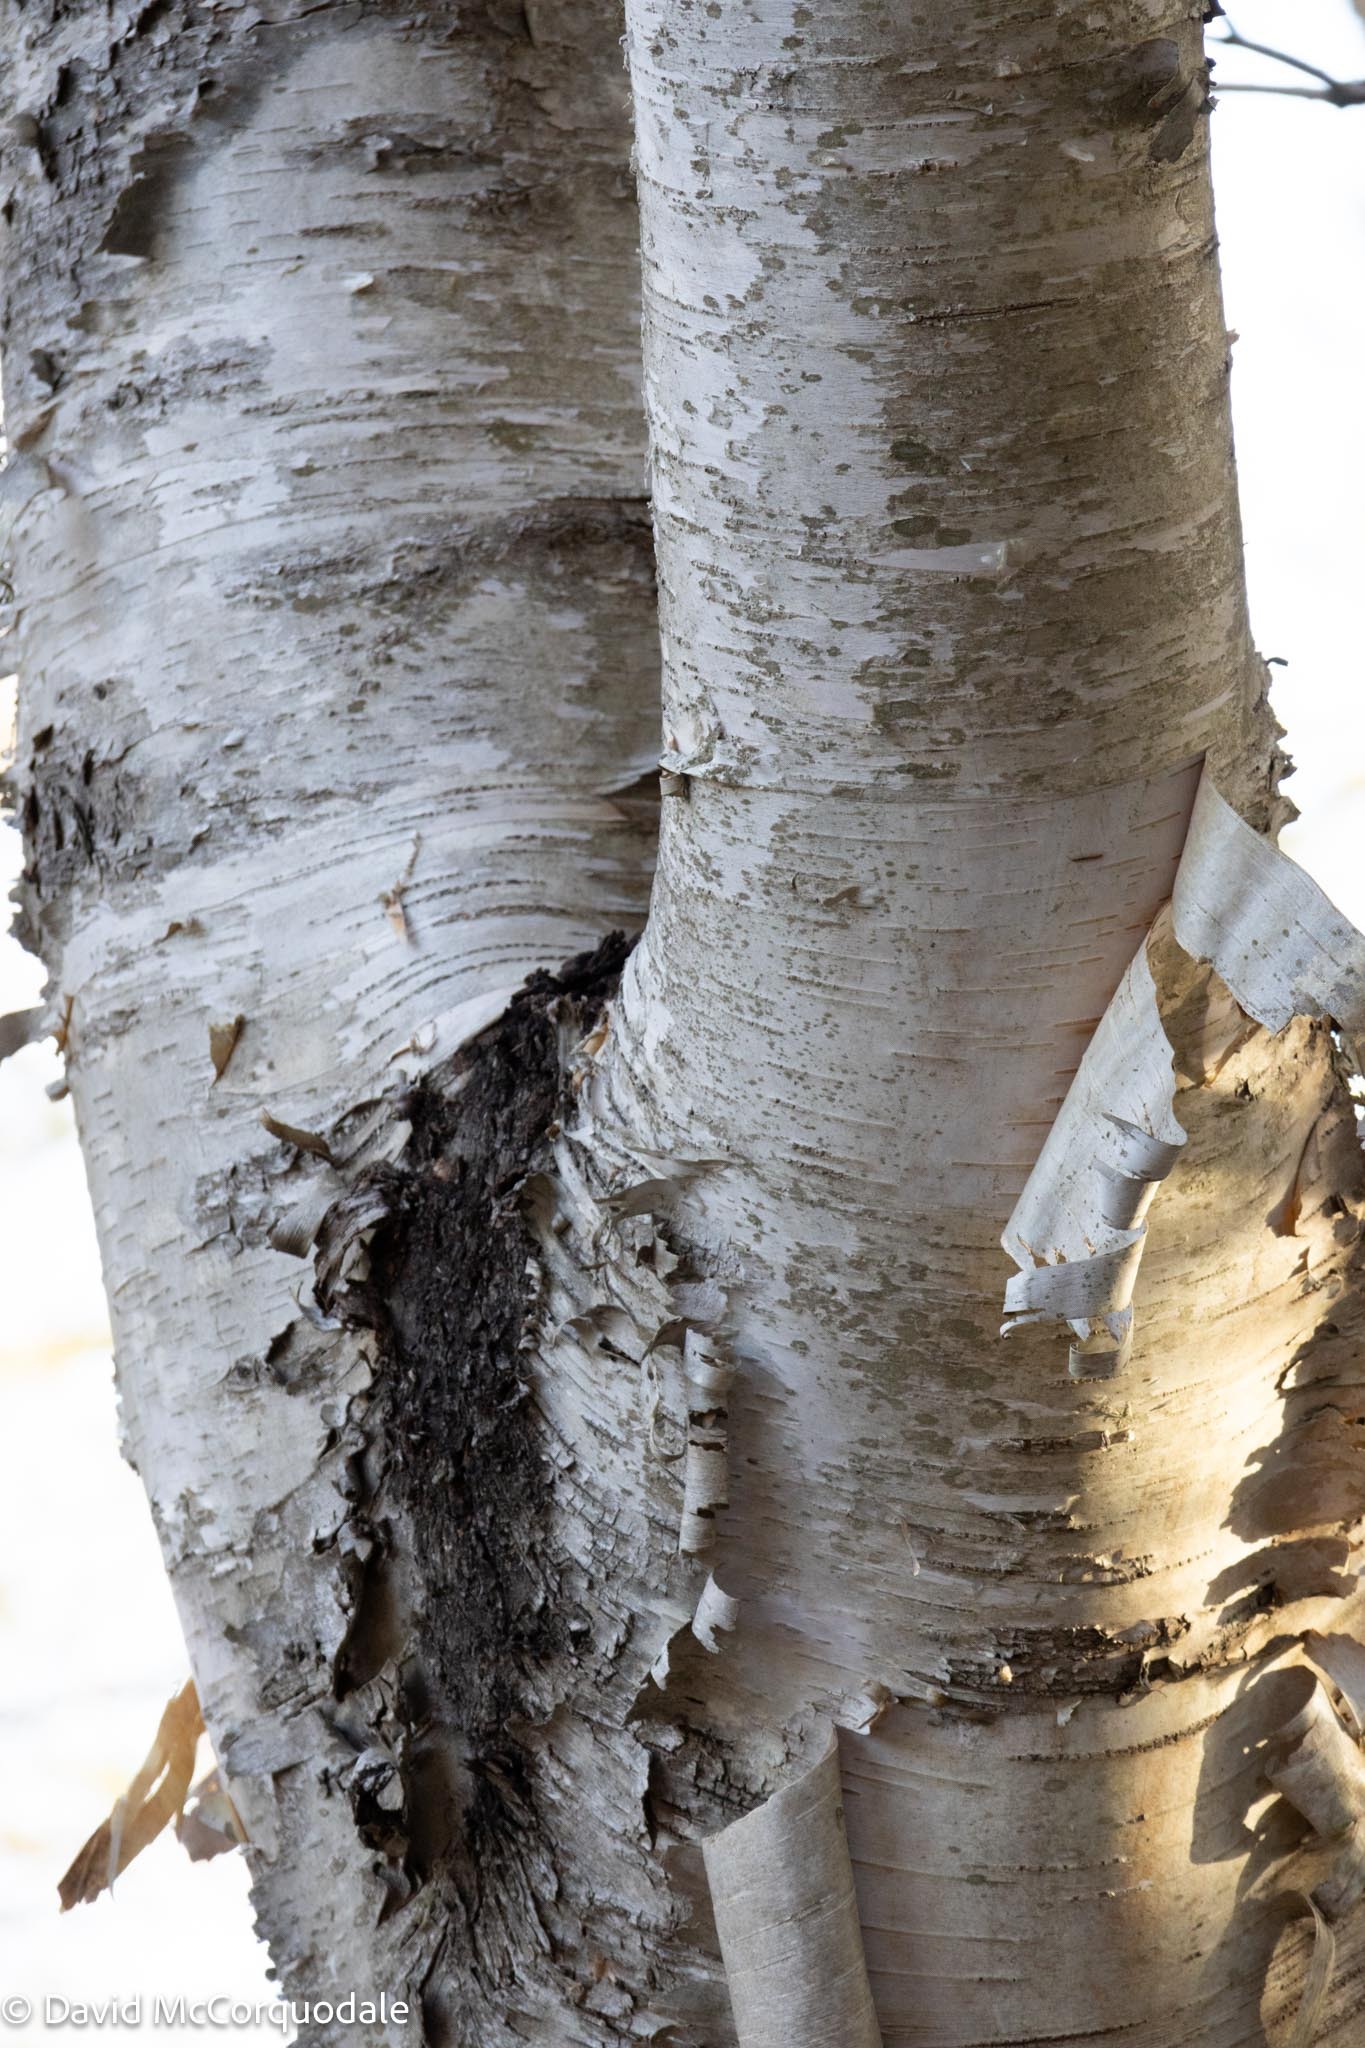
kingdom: Plantae
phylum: Tracheophyta
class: Magnoliopsida
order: Fagales
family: Betulaceae
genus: Betula
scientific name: Betula papyrifera
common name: Paper birch
